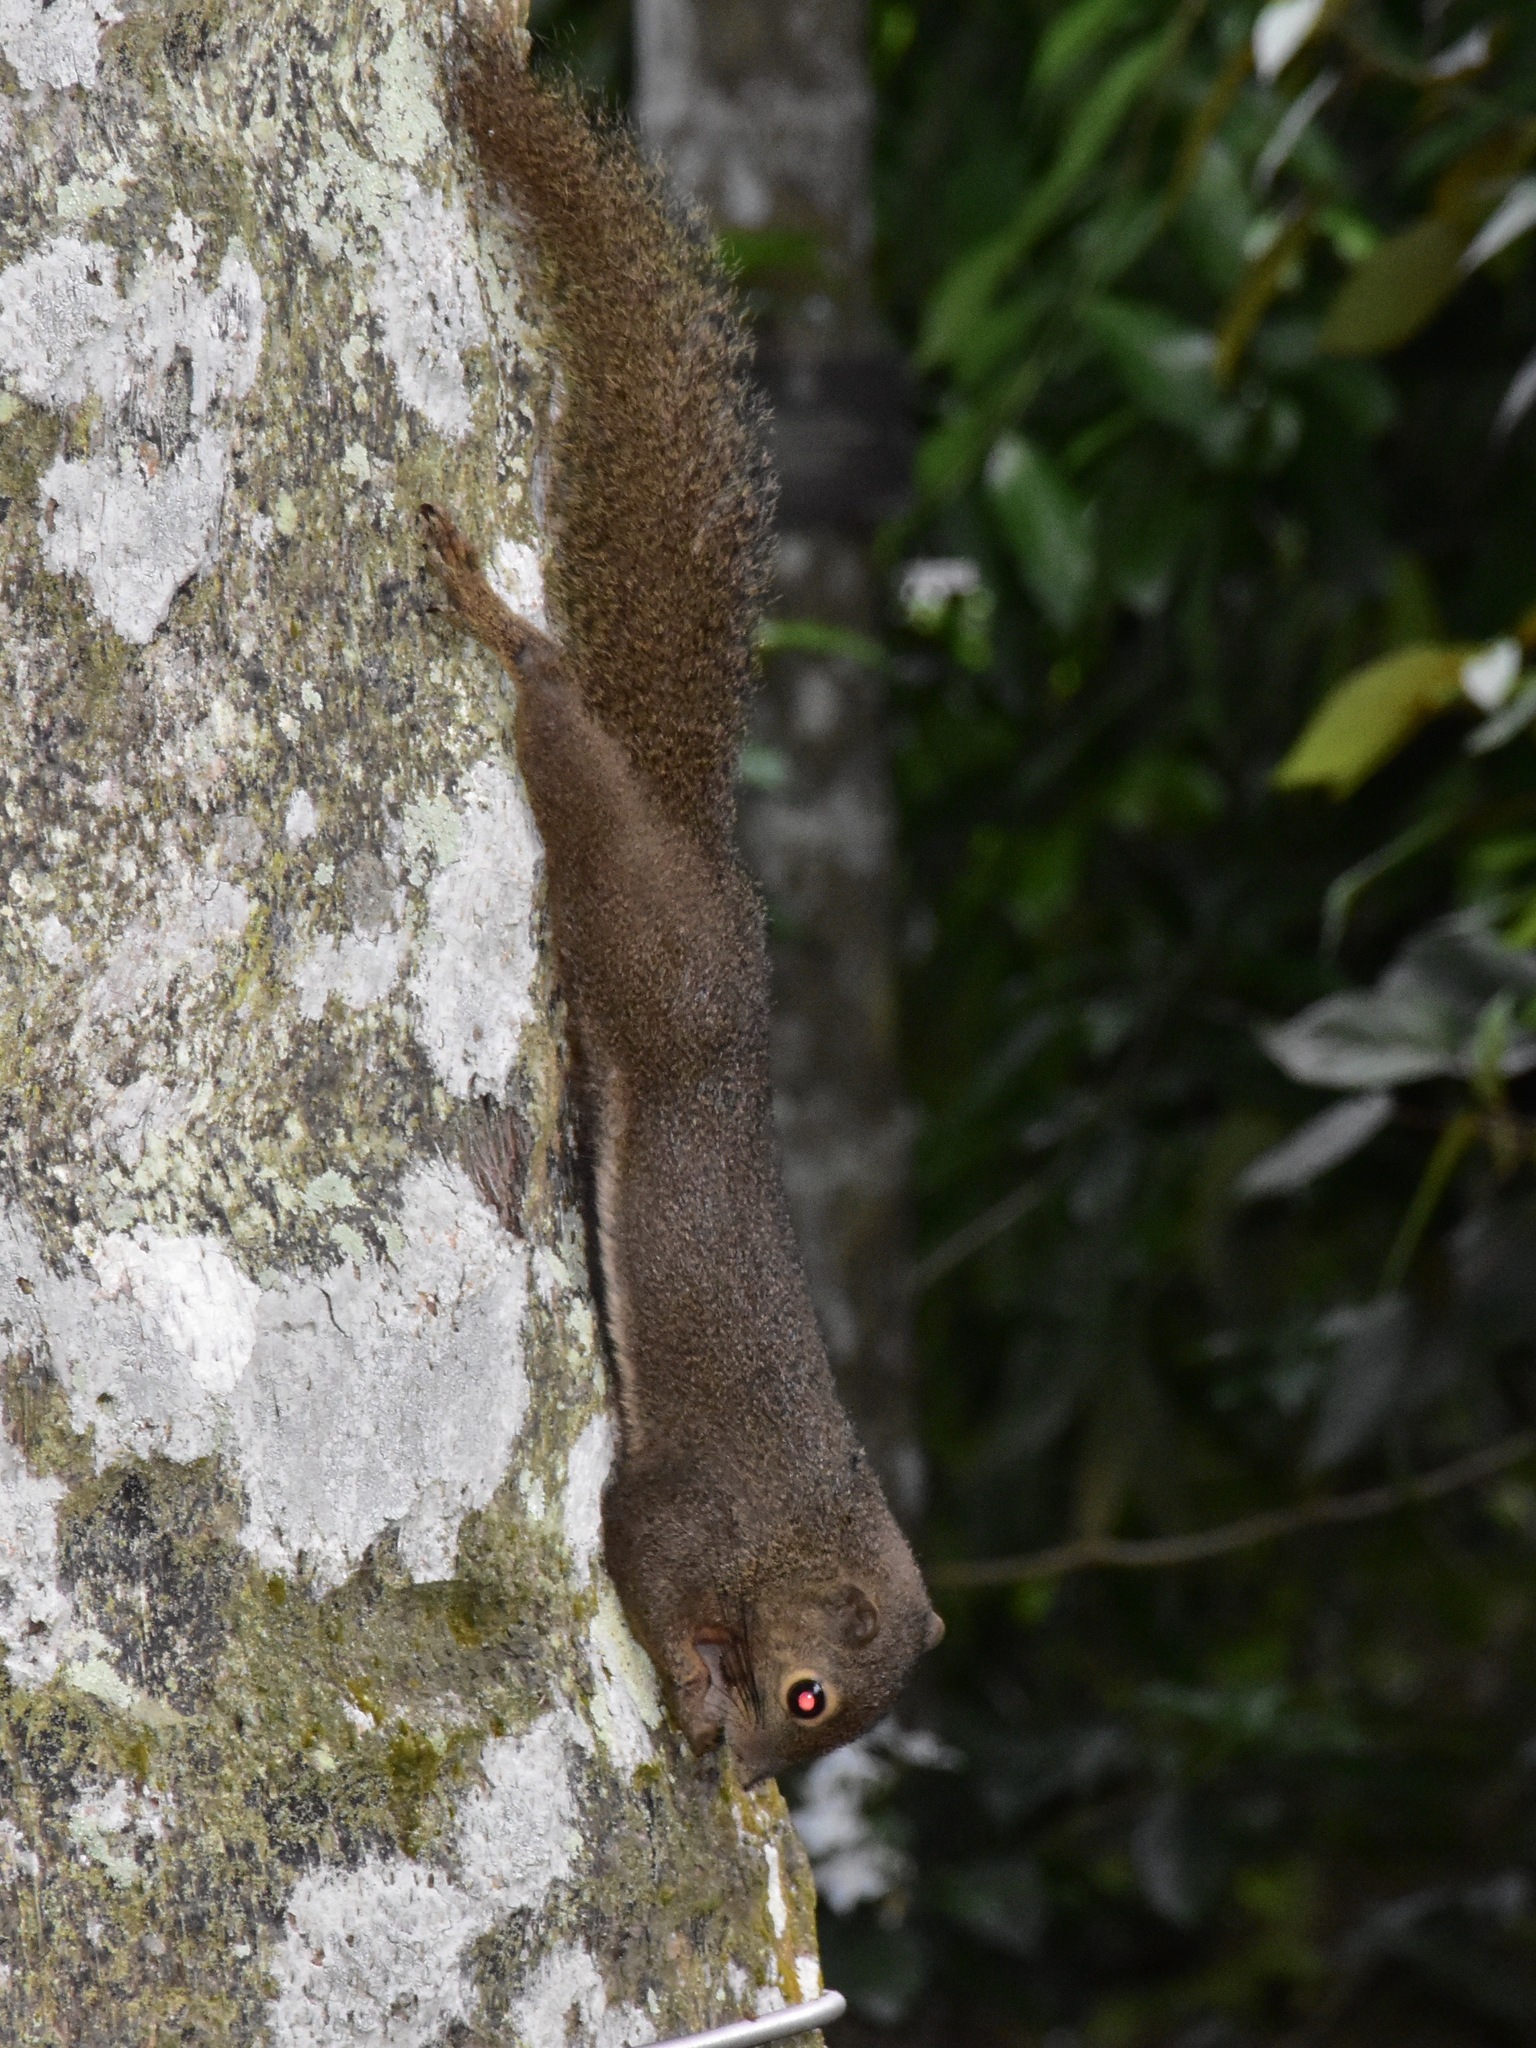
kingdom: Animalia
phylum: Chordata
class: Mammalia
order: Rodentia
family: Sciuridae
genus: Callosciurus
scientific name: Callosciurus notatus
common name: Plantain squirrel
